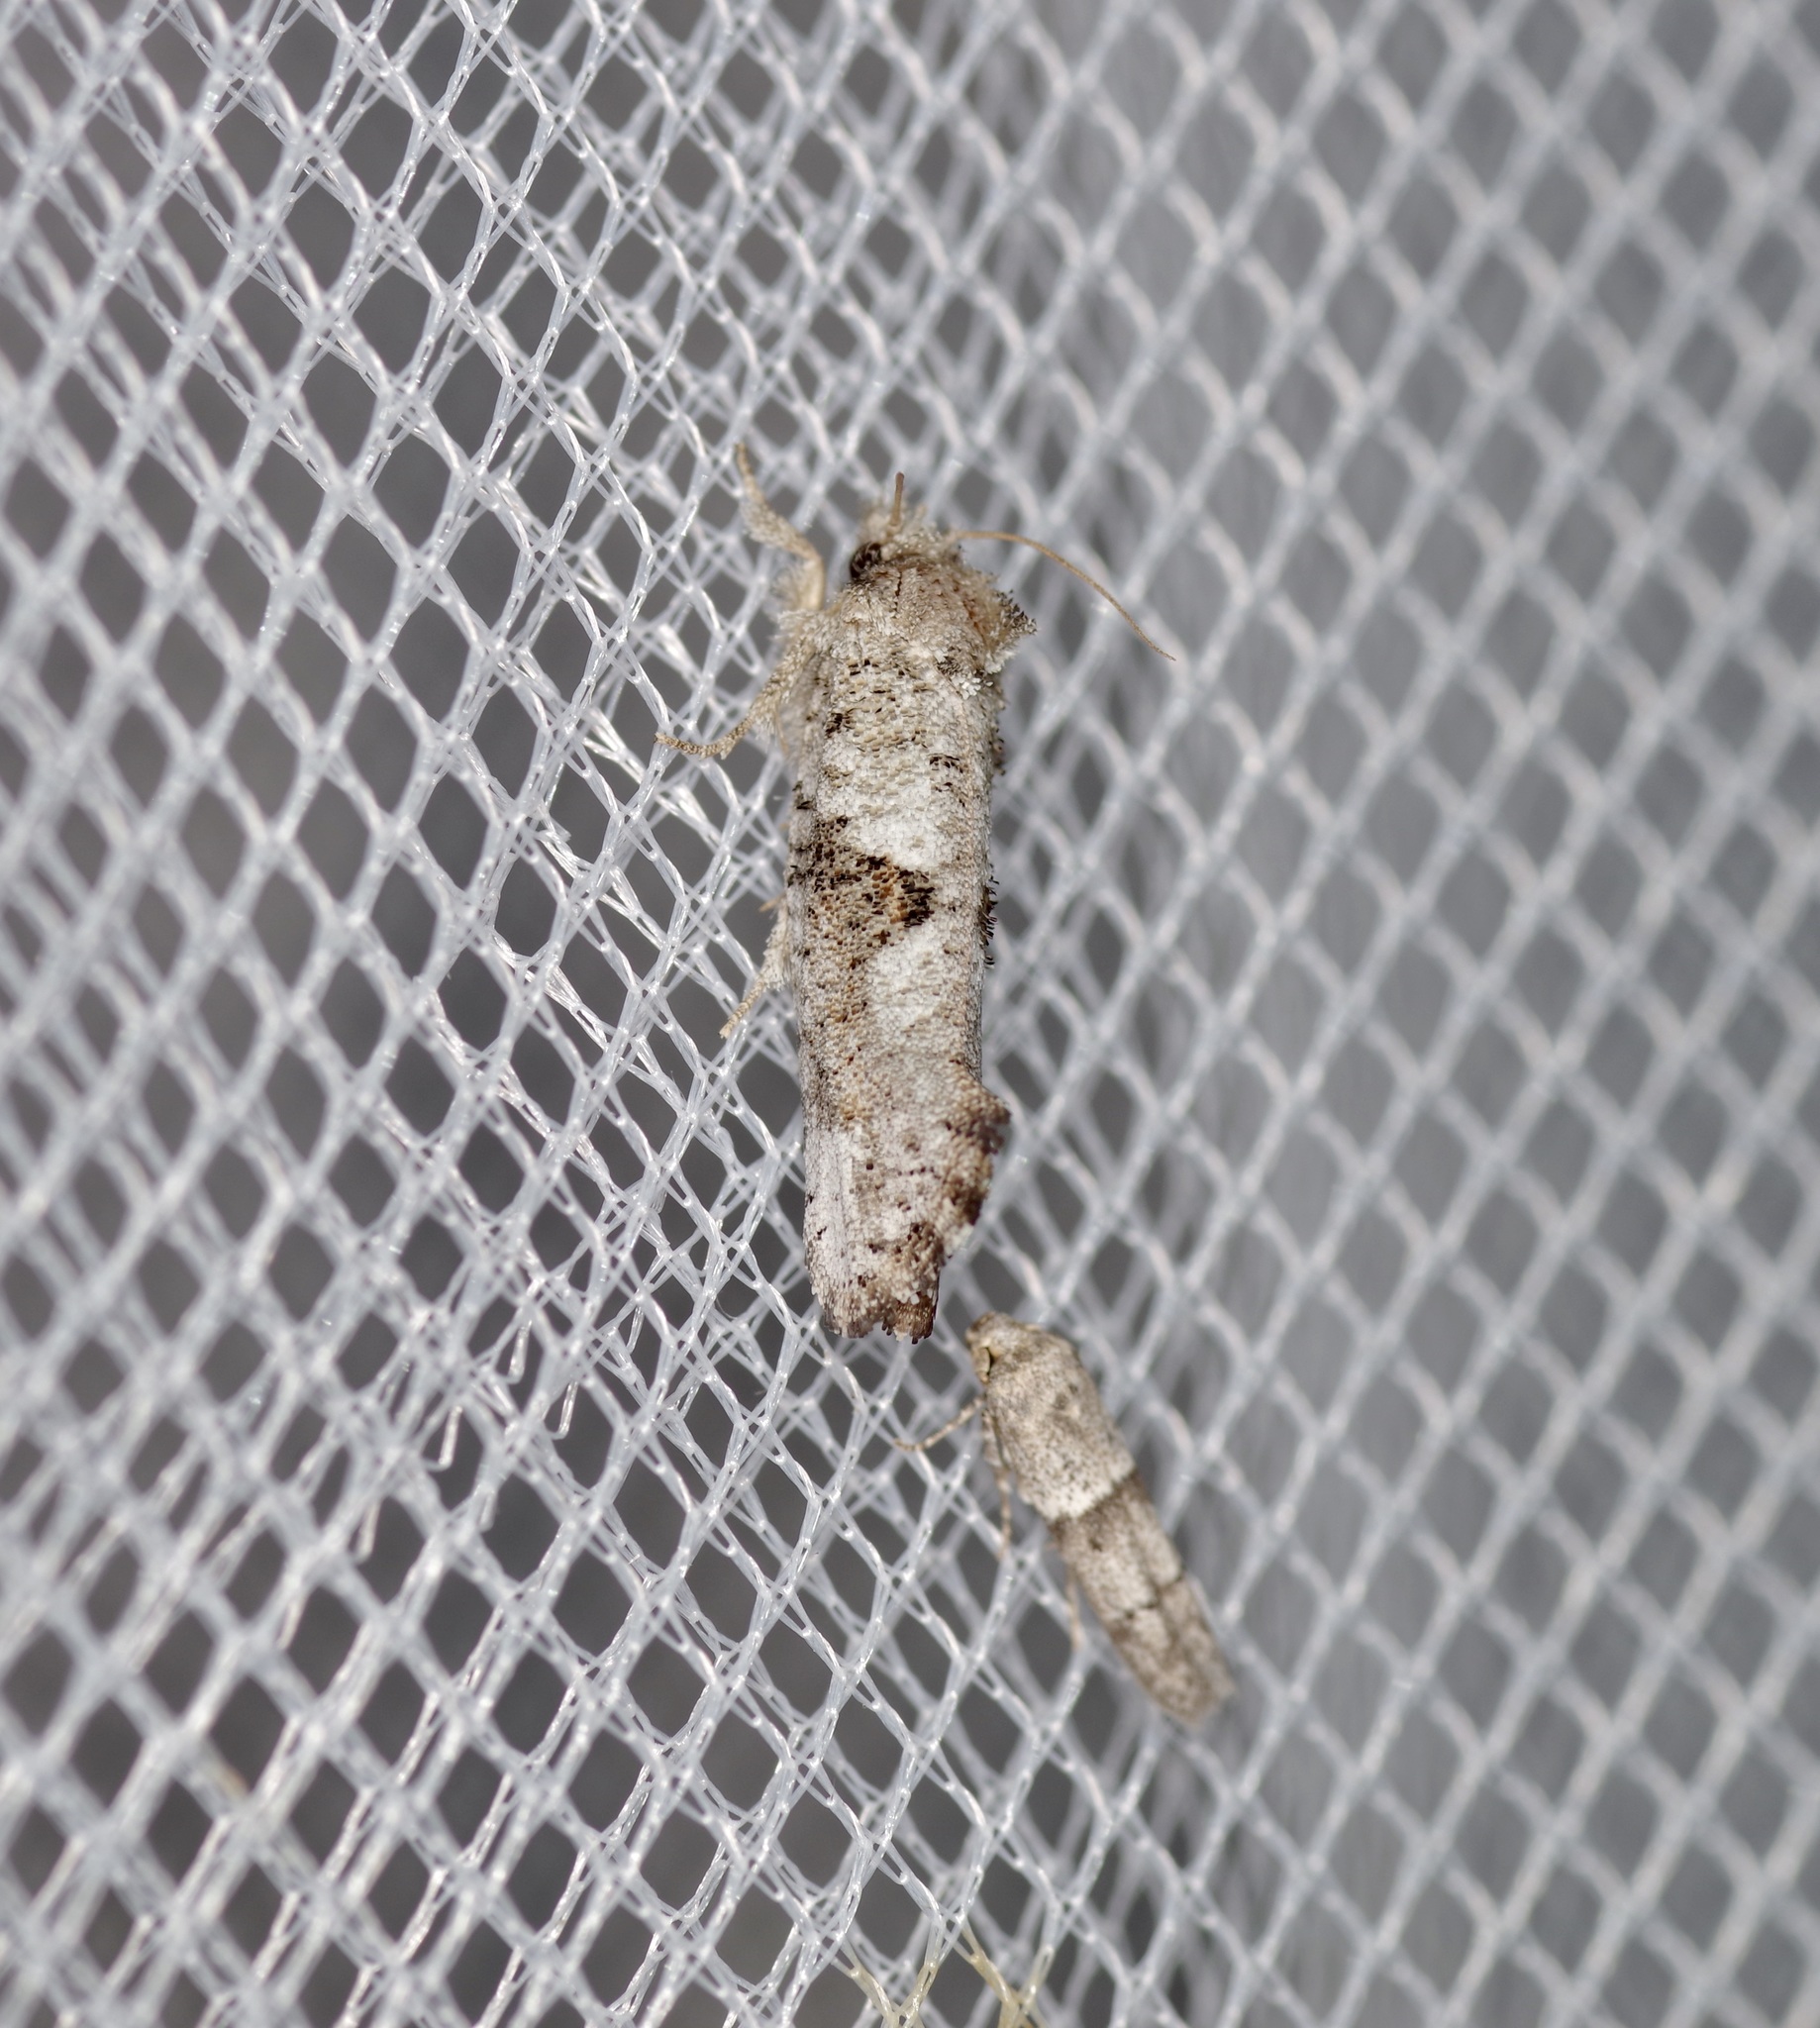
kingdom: Animalia
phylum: Arthropoda
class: Insecta
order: Lepidoptera
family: Tineidae
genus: Acrolophus
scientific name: Acrolophus piger
